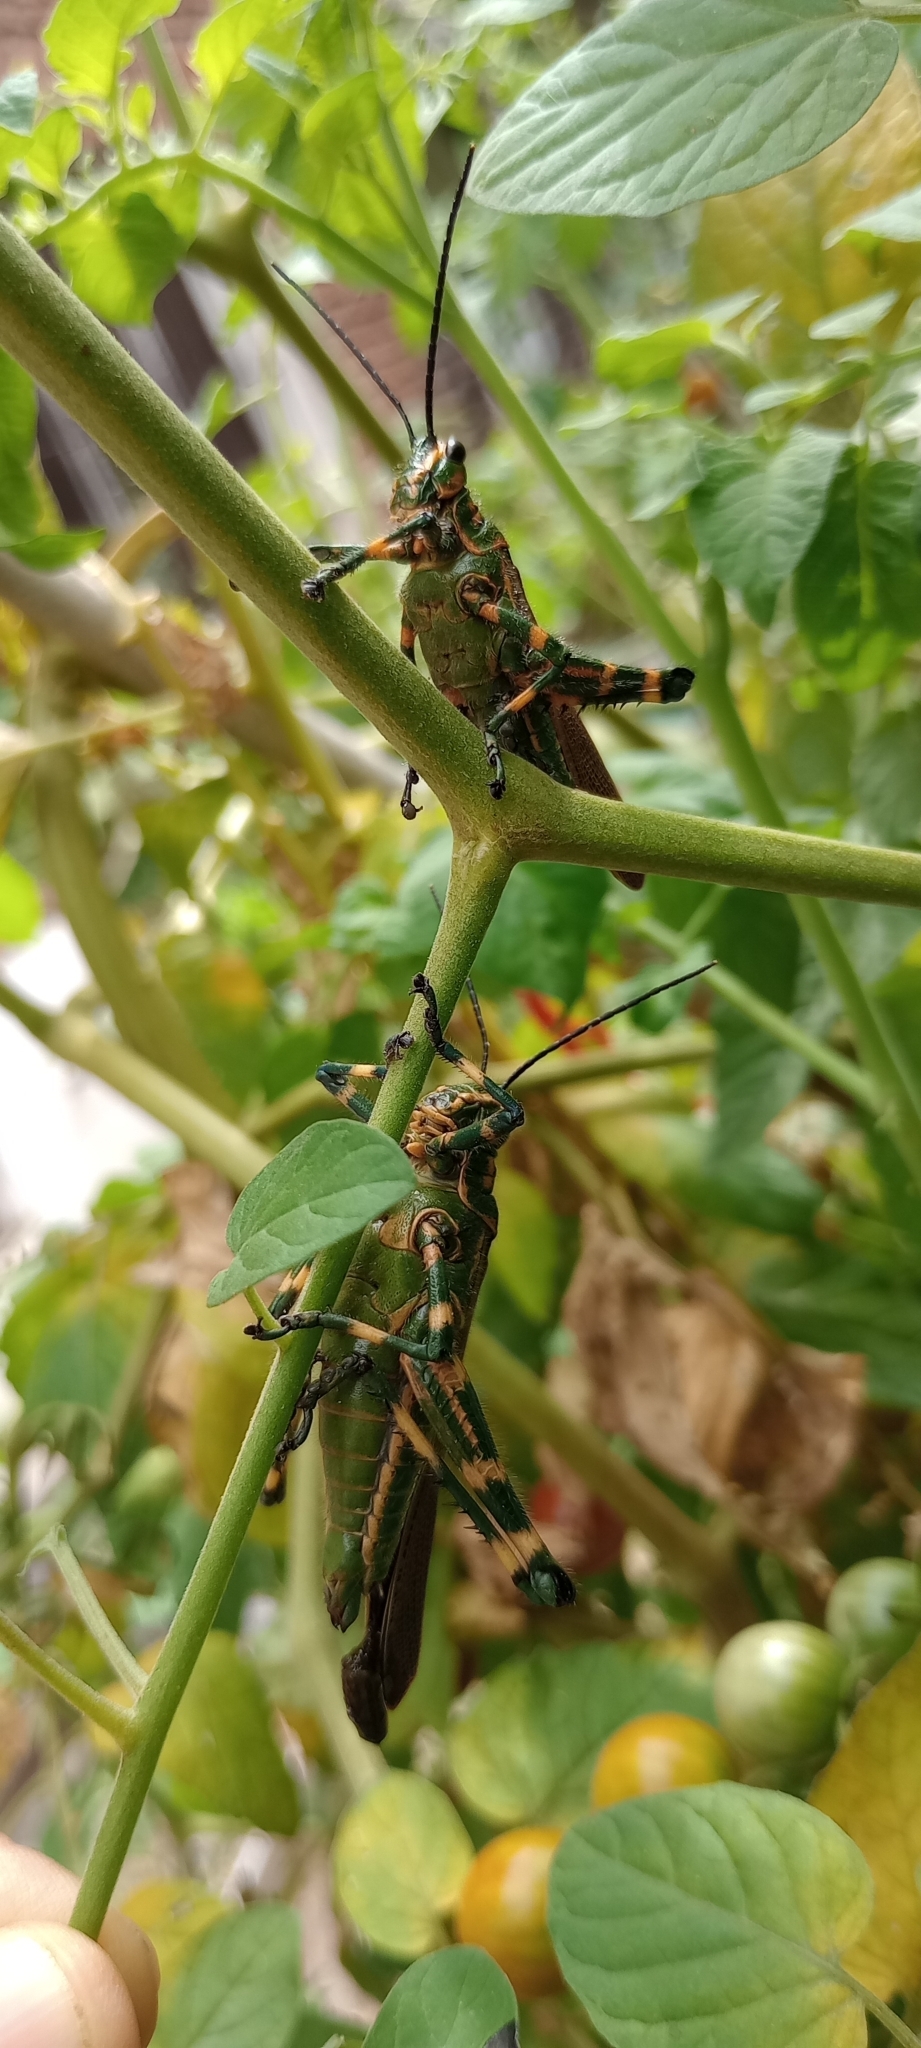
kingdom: Animalia
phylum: Arthropoda
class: Insecta
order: Orthoptera
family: Romaleidae
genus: Chromacris
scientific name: Chromacris speciosa
